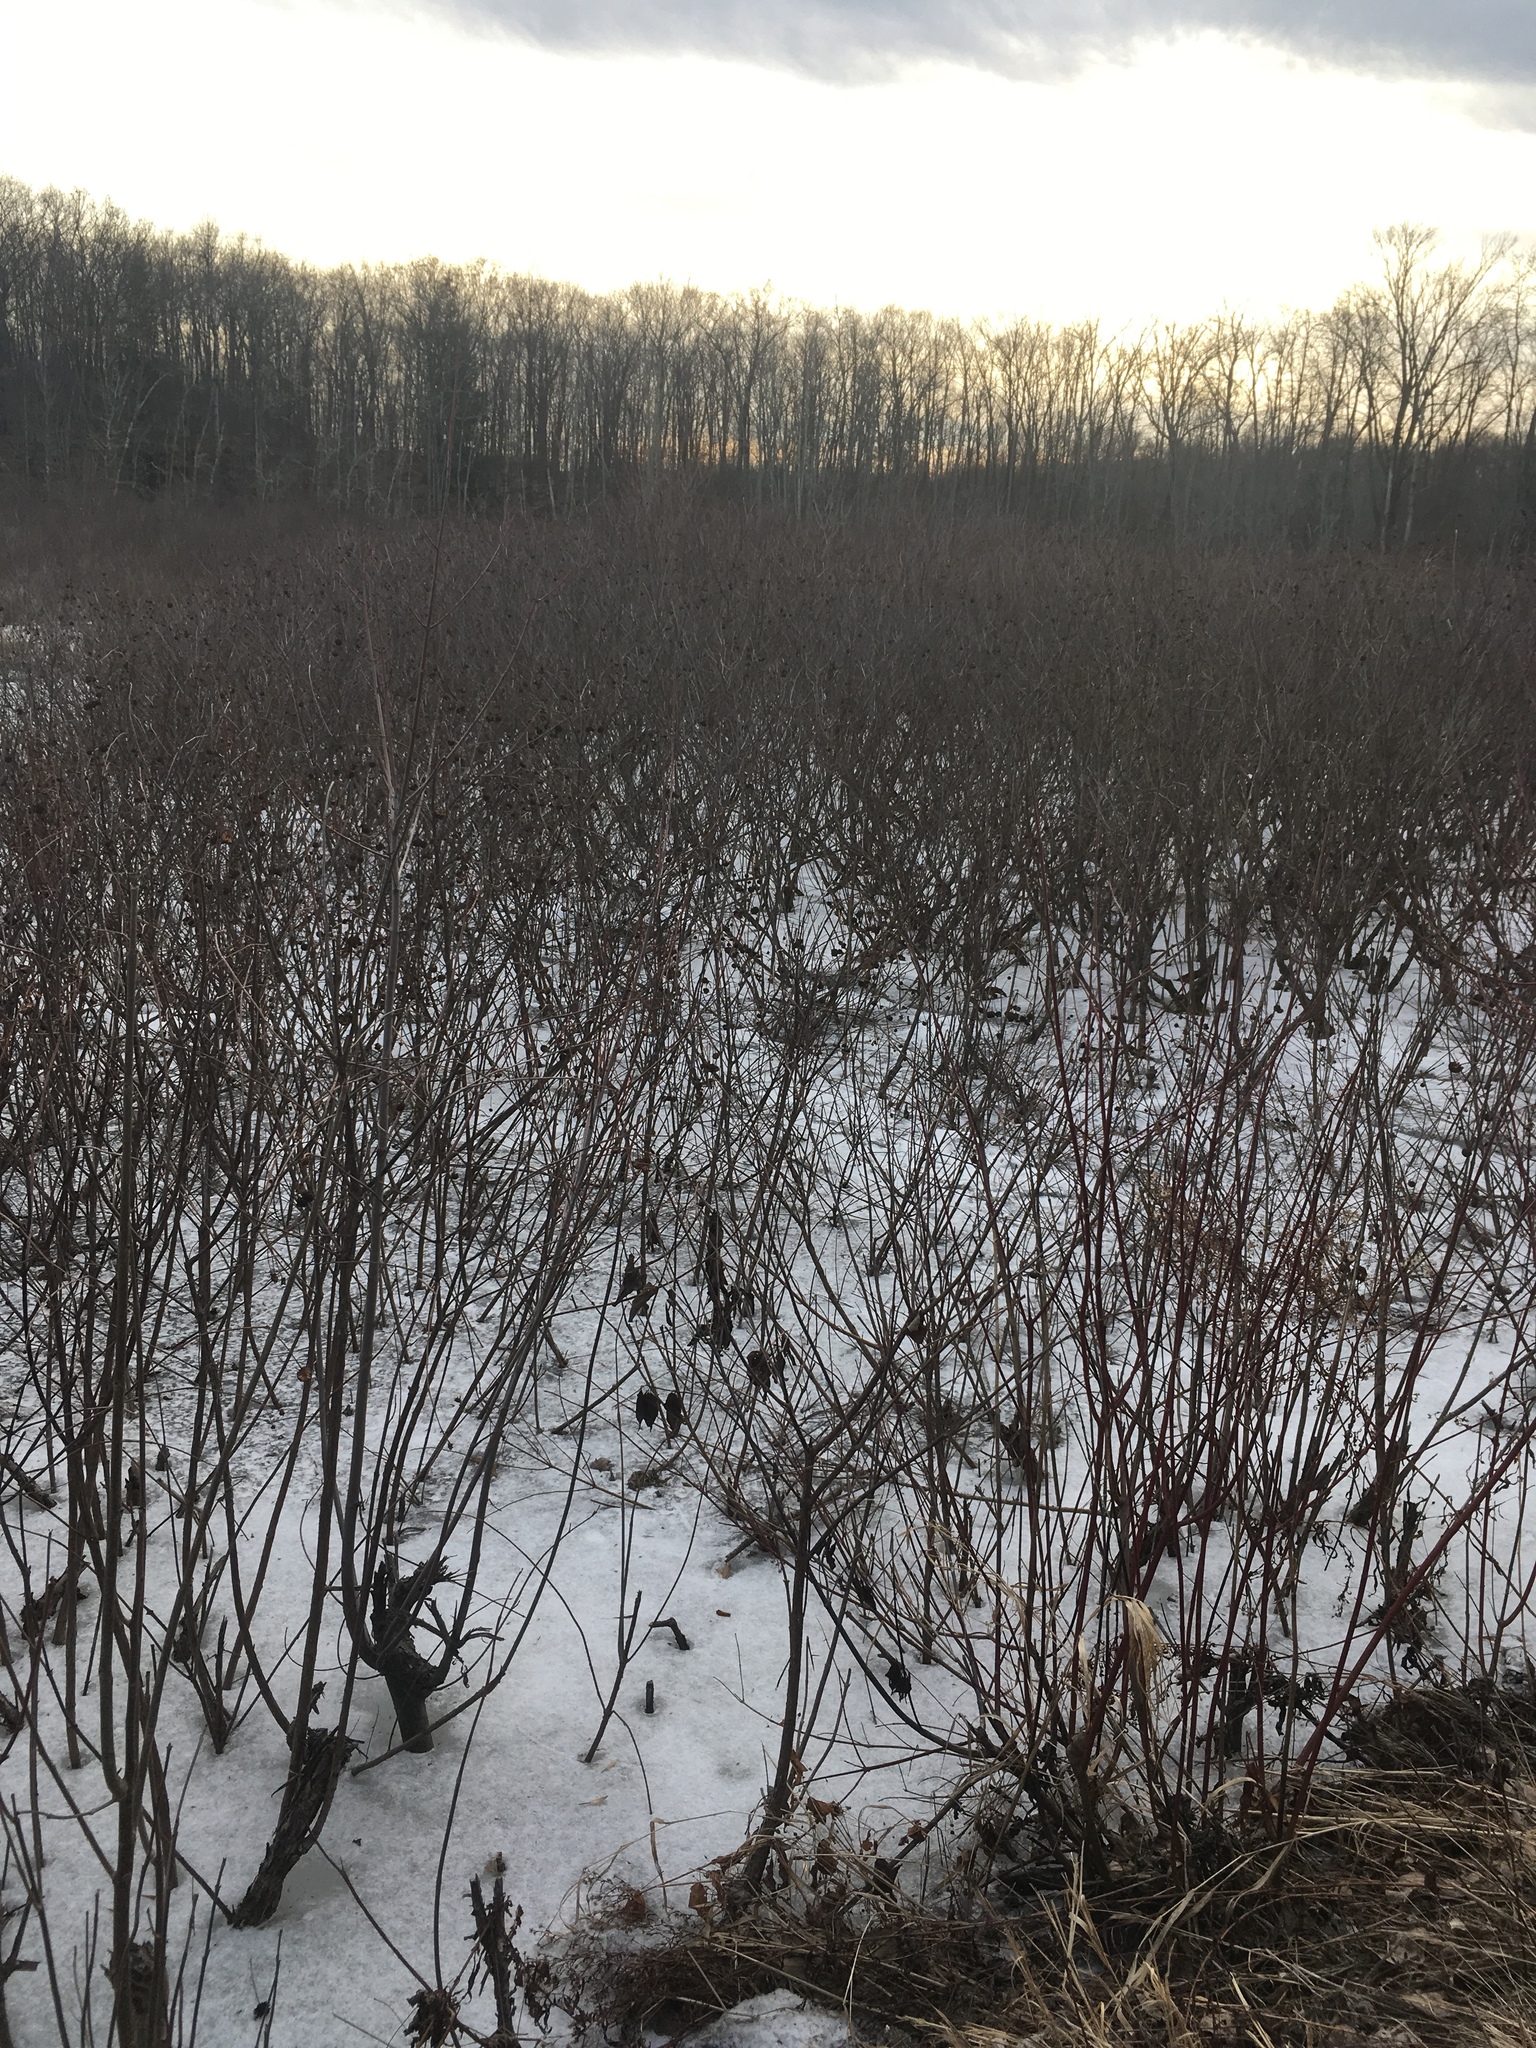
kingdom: Plantae
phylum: Tracheophyta
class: Magnoliopsida
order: Gentianales
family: Rubiaceae
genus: Cephalanthus
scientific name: Cephalanthus occidentalis
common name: Button-willow
